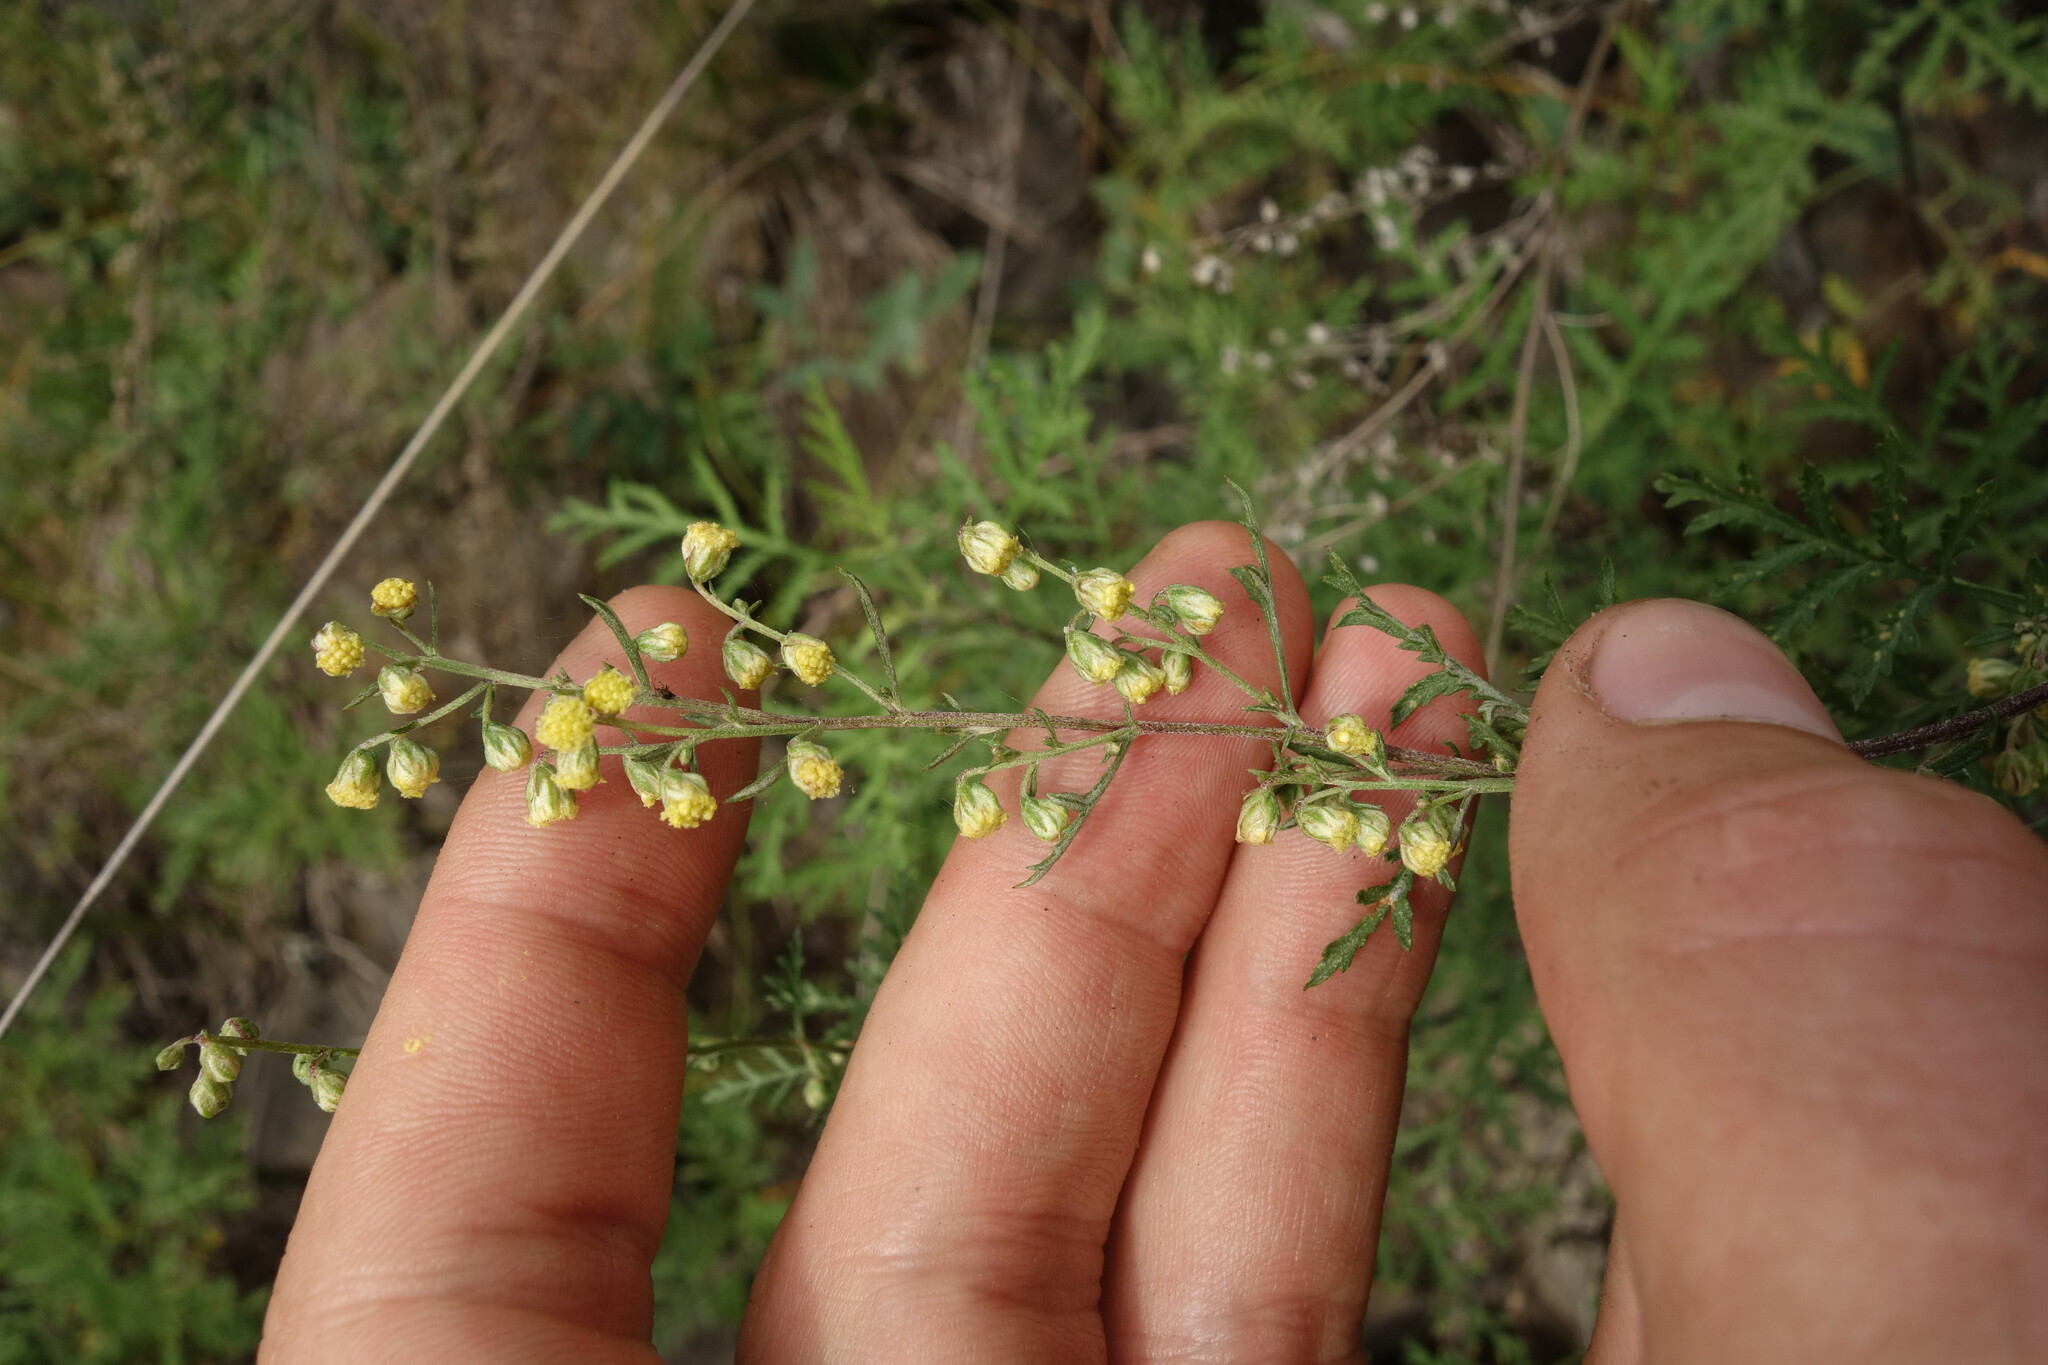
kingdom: Plantae
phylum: Tracheophyta
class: Magnoliopsida
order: Asterales
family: Asteraceae
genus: Artemisia
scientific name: Artemisia gmelinii
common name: Gmelin's wormwood
